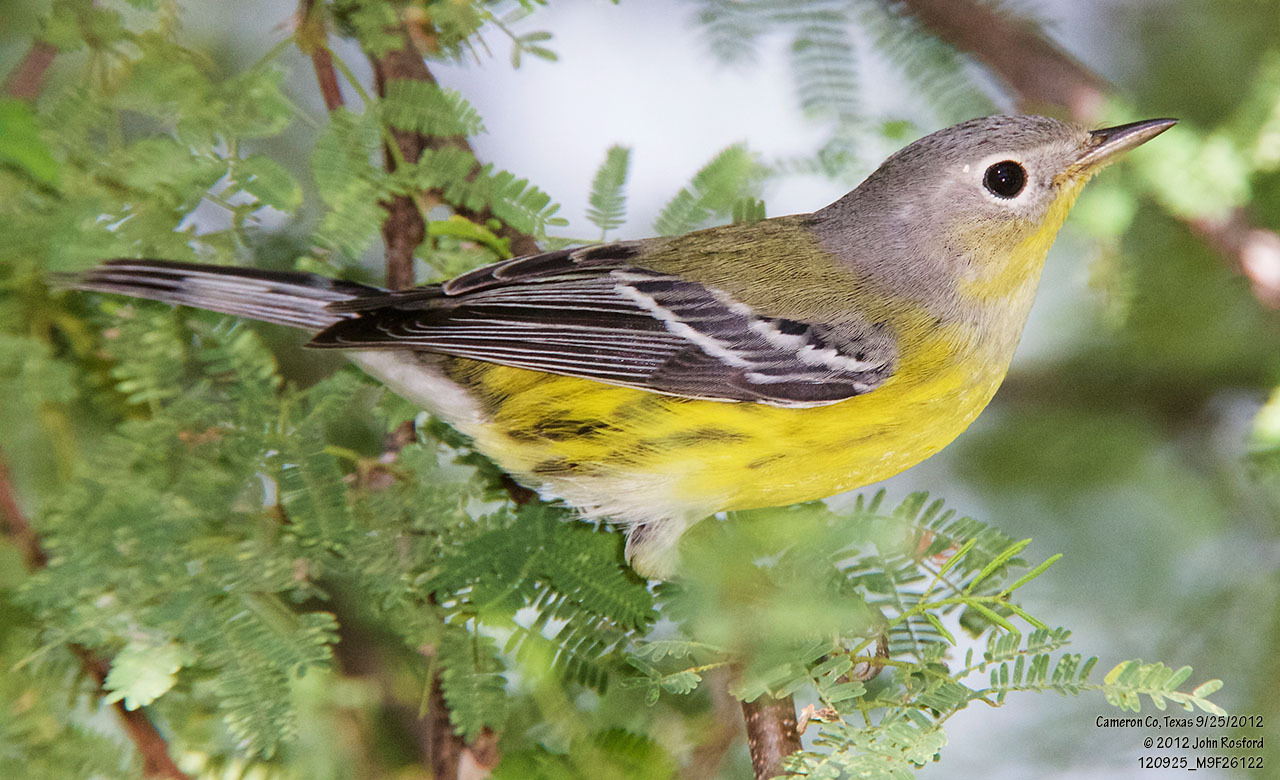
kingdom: Animalia
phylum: Chordata
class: Aves
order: Passeriformes
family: Parulidae
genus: Setophaga
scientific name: Setophaga magnolia
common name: Magnolia warbler
